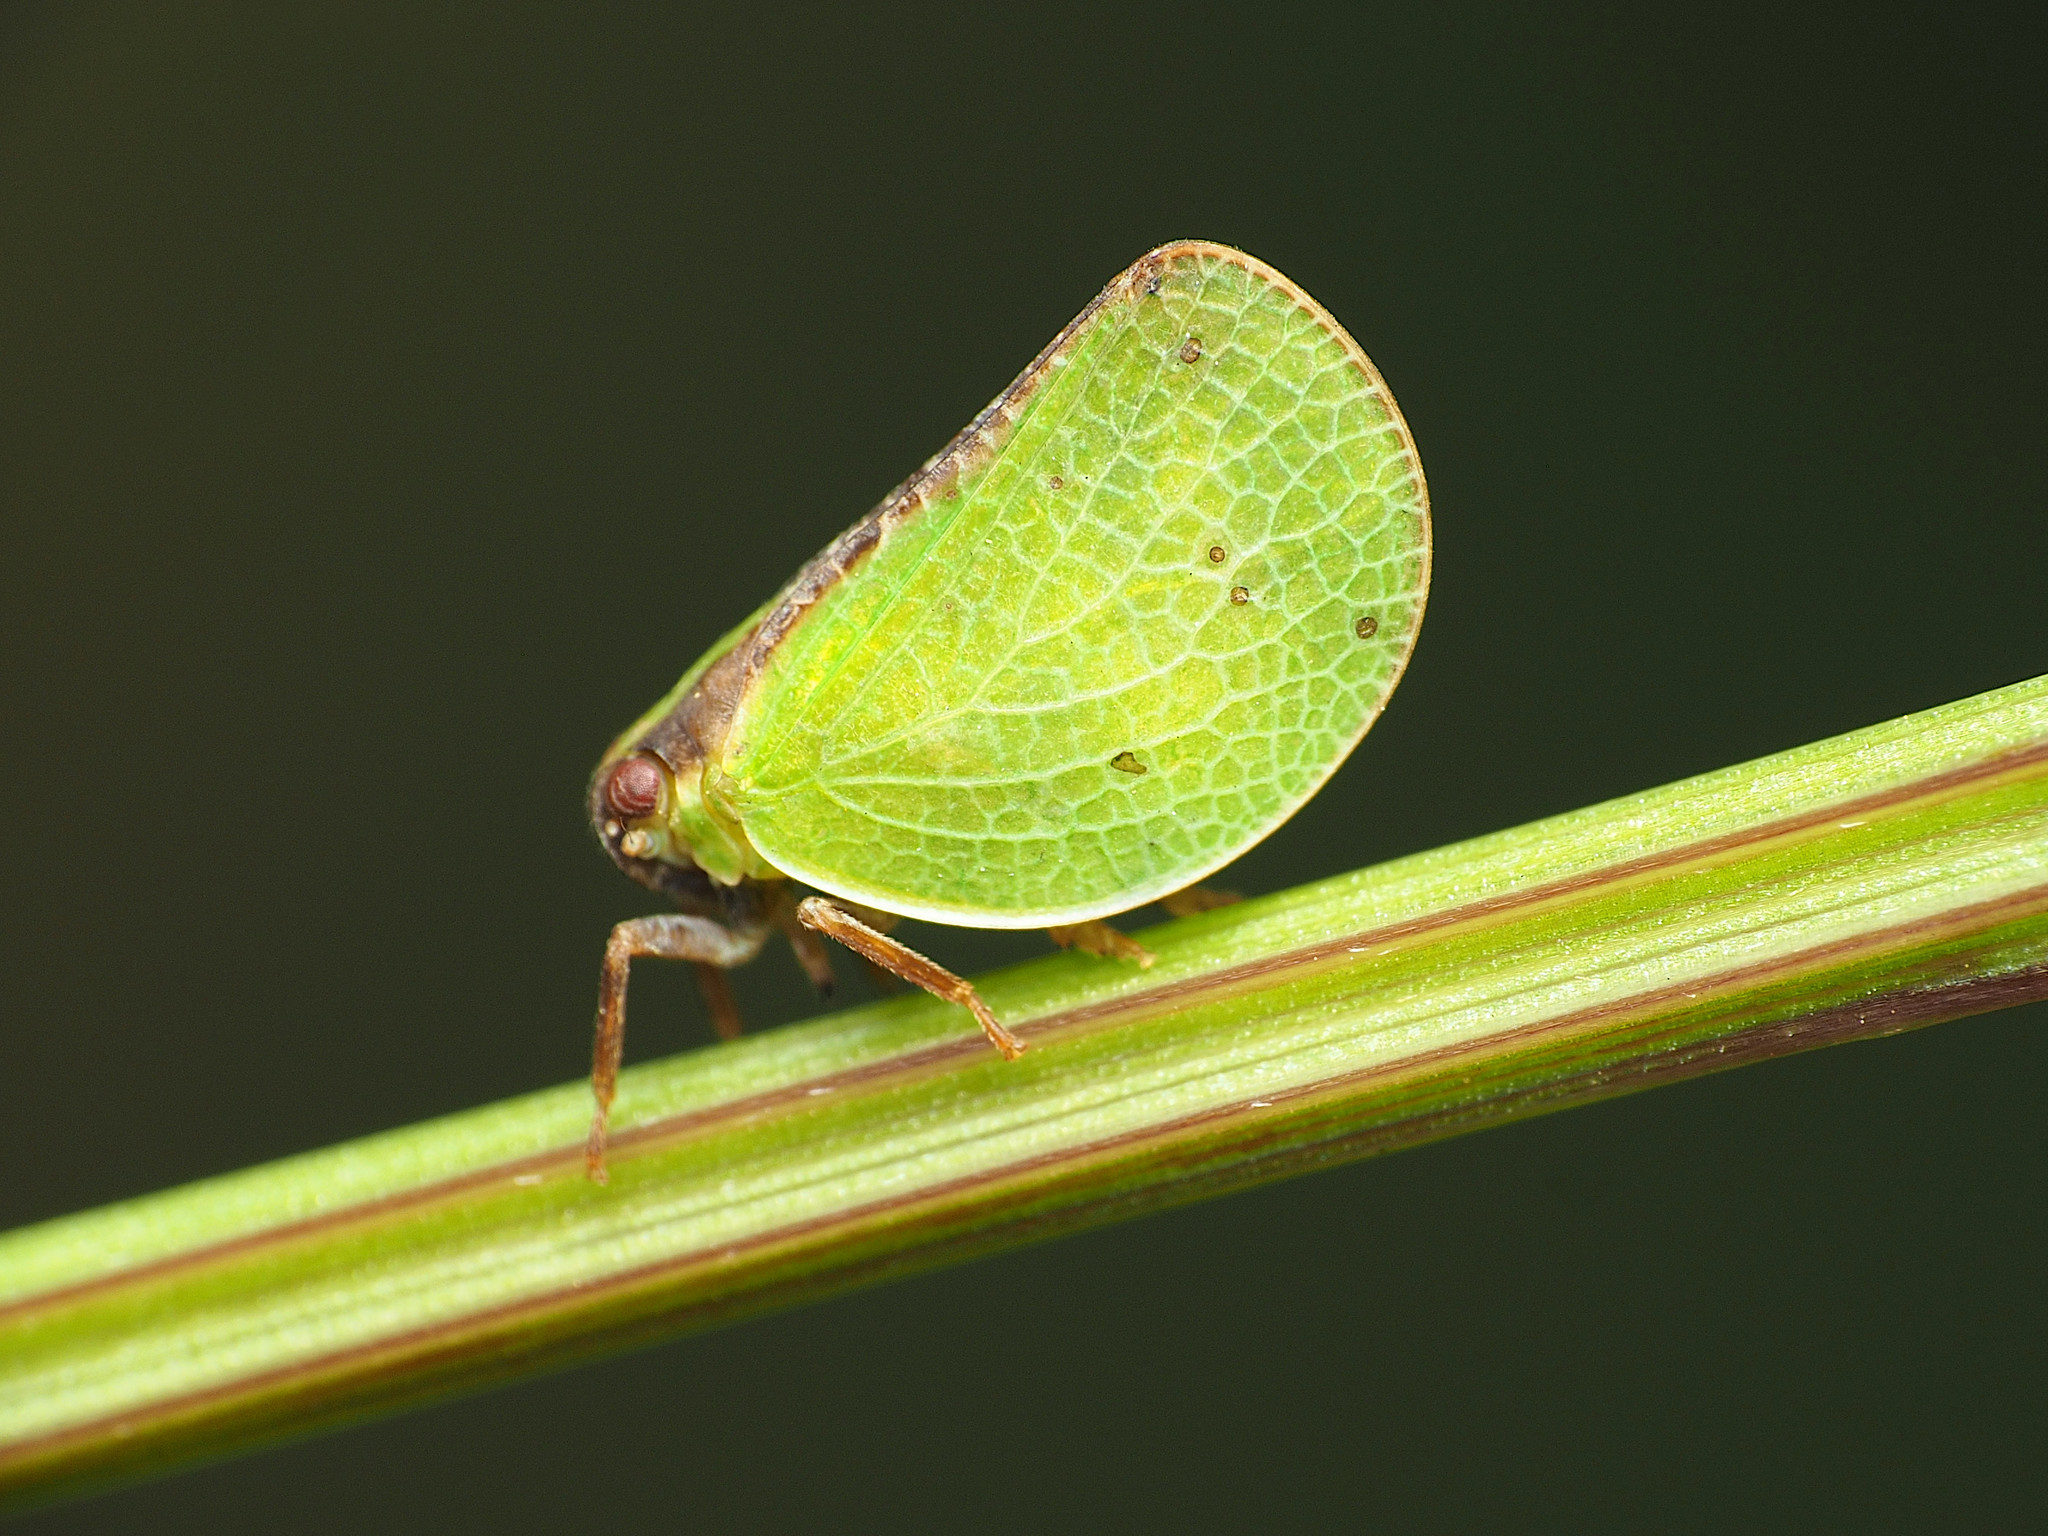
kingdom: Animalia
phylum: Arthropoda
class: Insecta
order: Hemiptera
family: Acanaloniidae
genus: Acanalonia
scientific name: Acanalonia bivittata
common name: Two-striped planthopper
